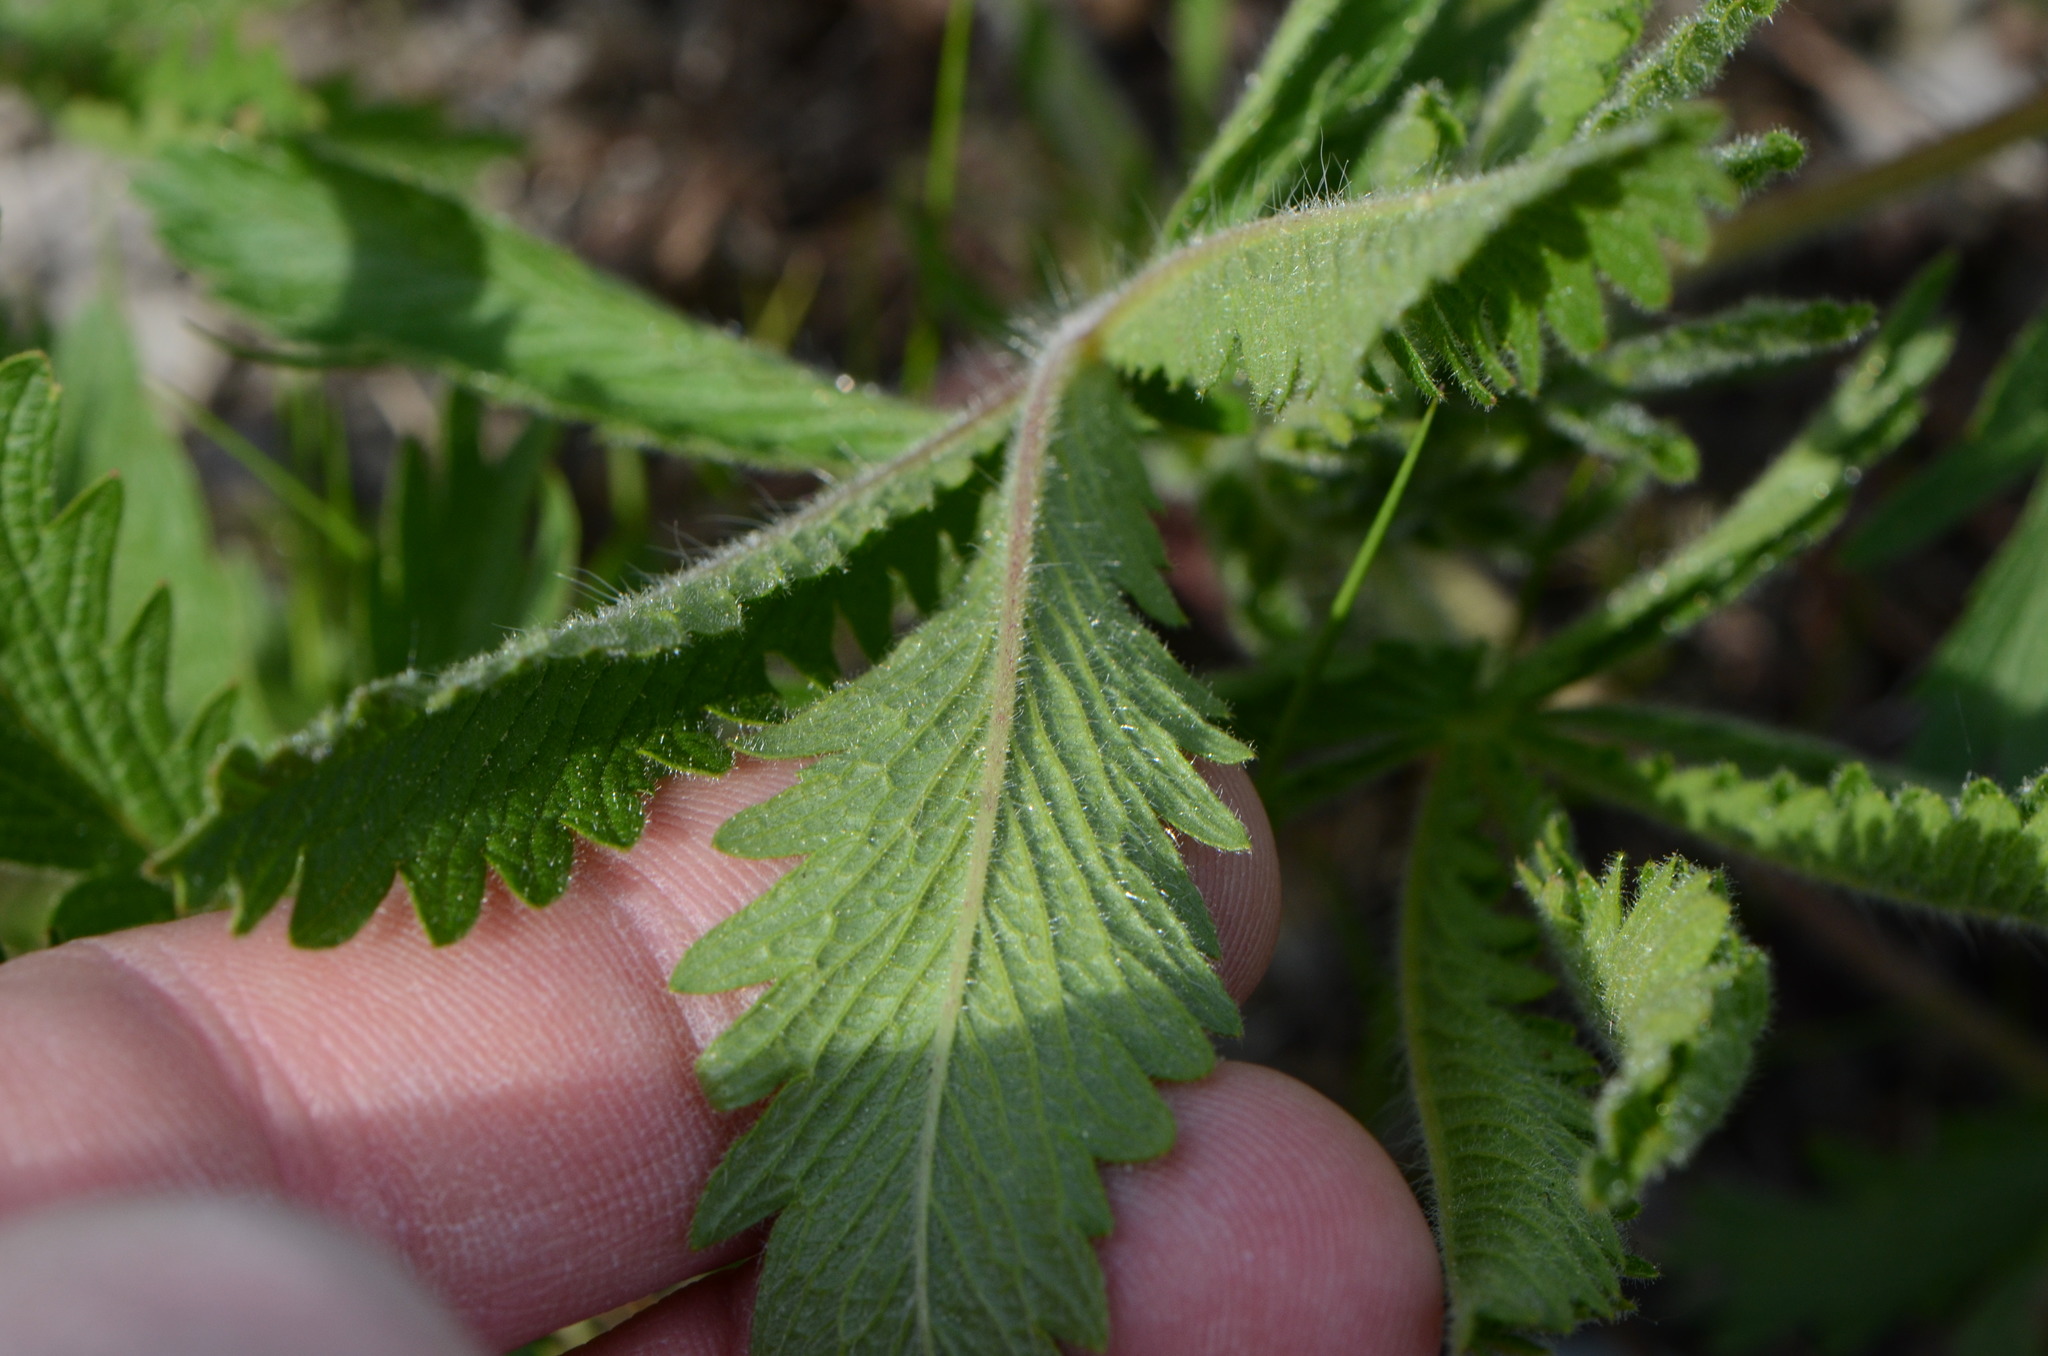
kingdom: Plantae
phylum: Tracheophyta
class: Magnoliopsida
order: Rosales
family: Rosaceae
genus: Potentilla
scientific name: Potentilla recta
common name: Sulphur cinquefoil
